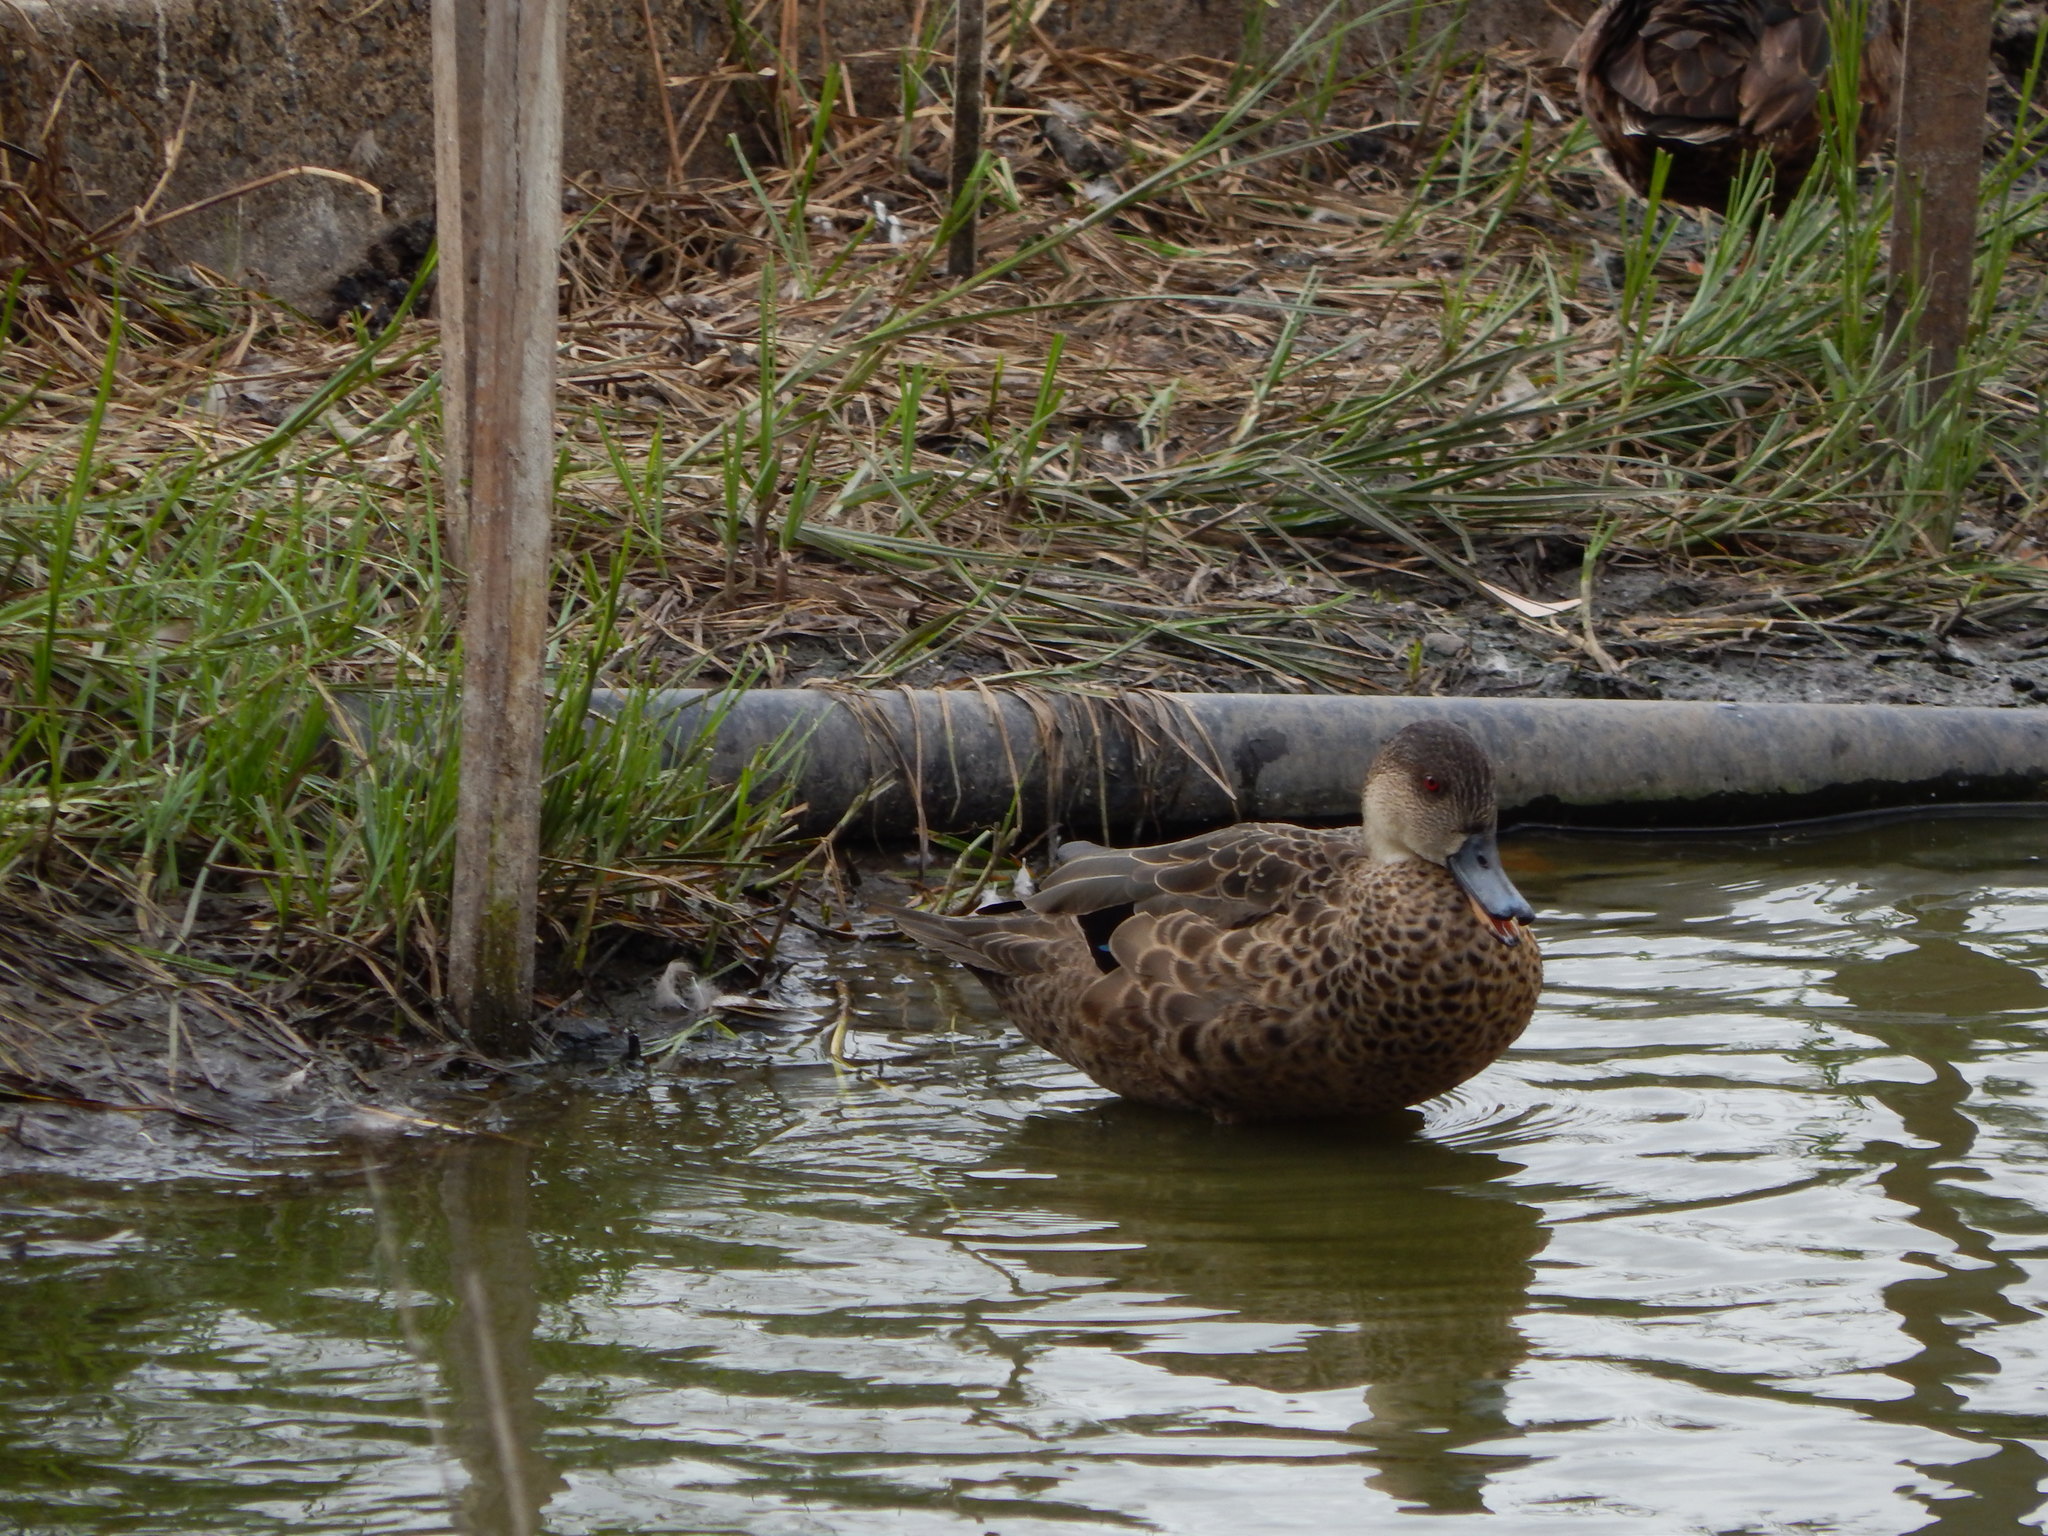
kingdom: Animalia
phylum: Chordata
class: Aves
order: Anseriformes
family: Anatidae
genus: Anas
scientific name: Anas gracilis
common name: Grey teal
